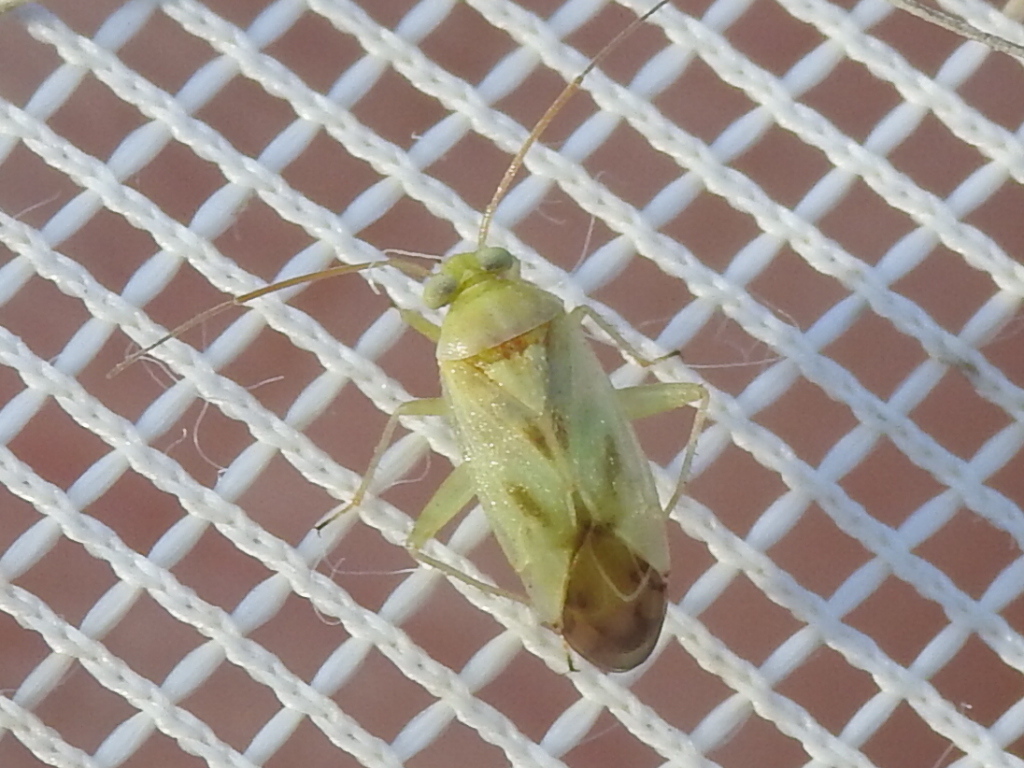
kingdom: Animalia
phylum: Arthropoda
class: Insecta
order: Hemiptera
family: Miridae
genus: Taylorilygus
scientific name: Taylorilygus apicalis
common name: Plant bug
